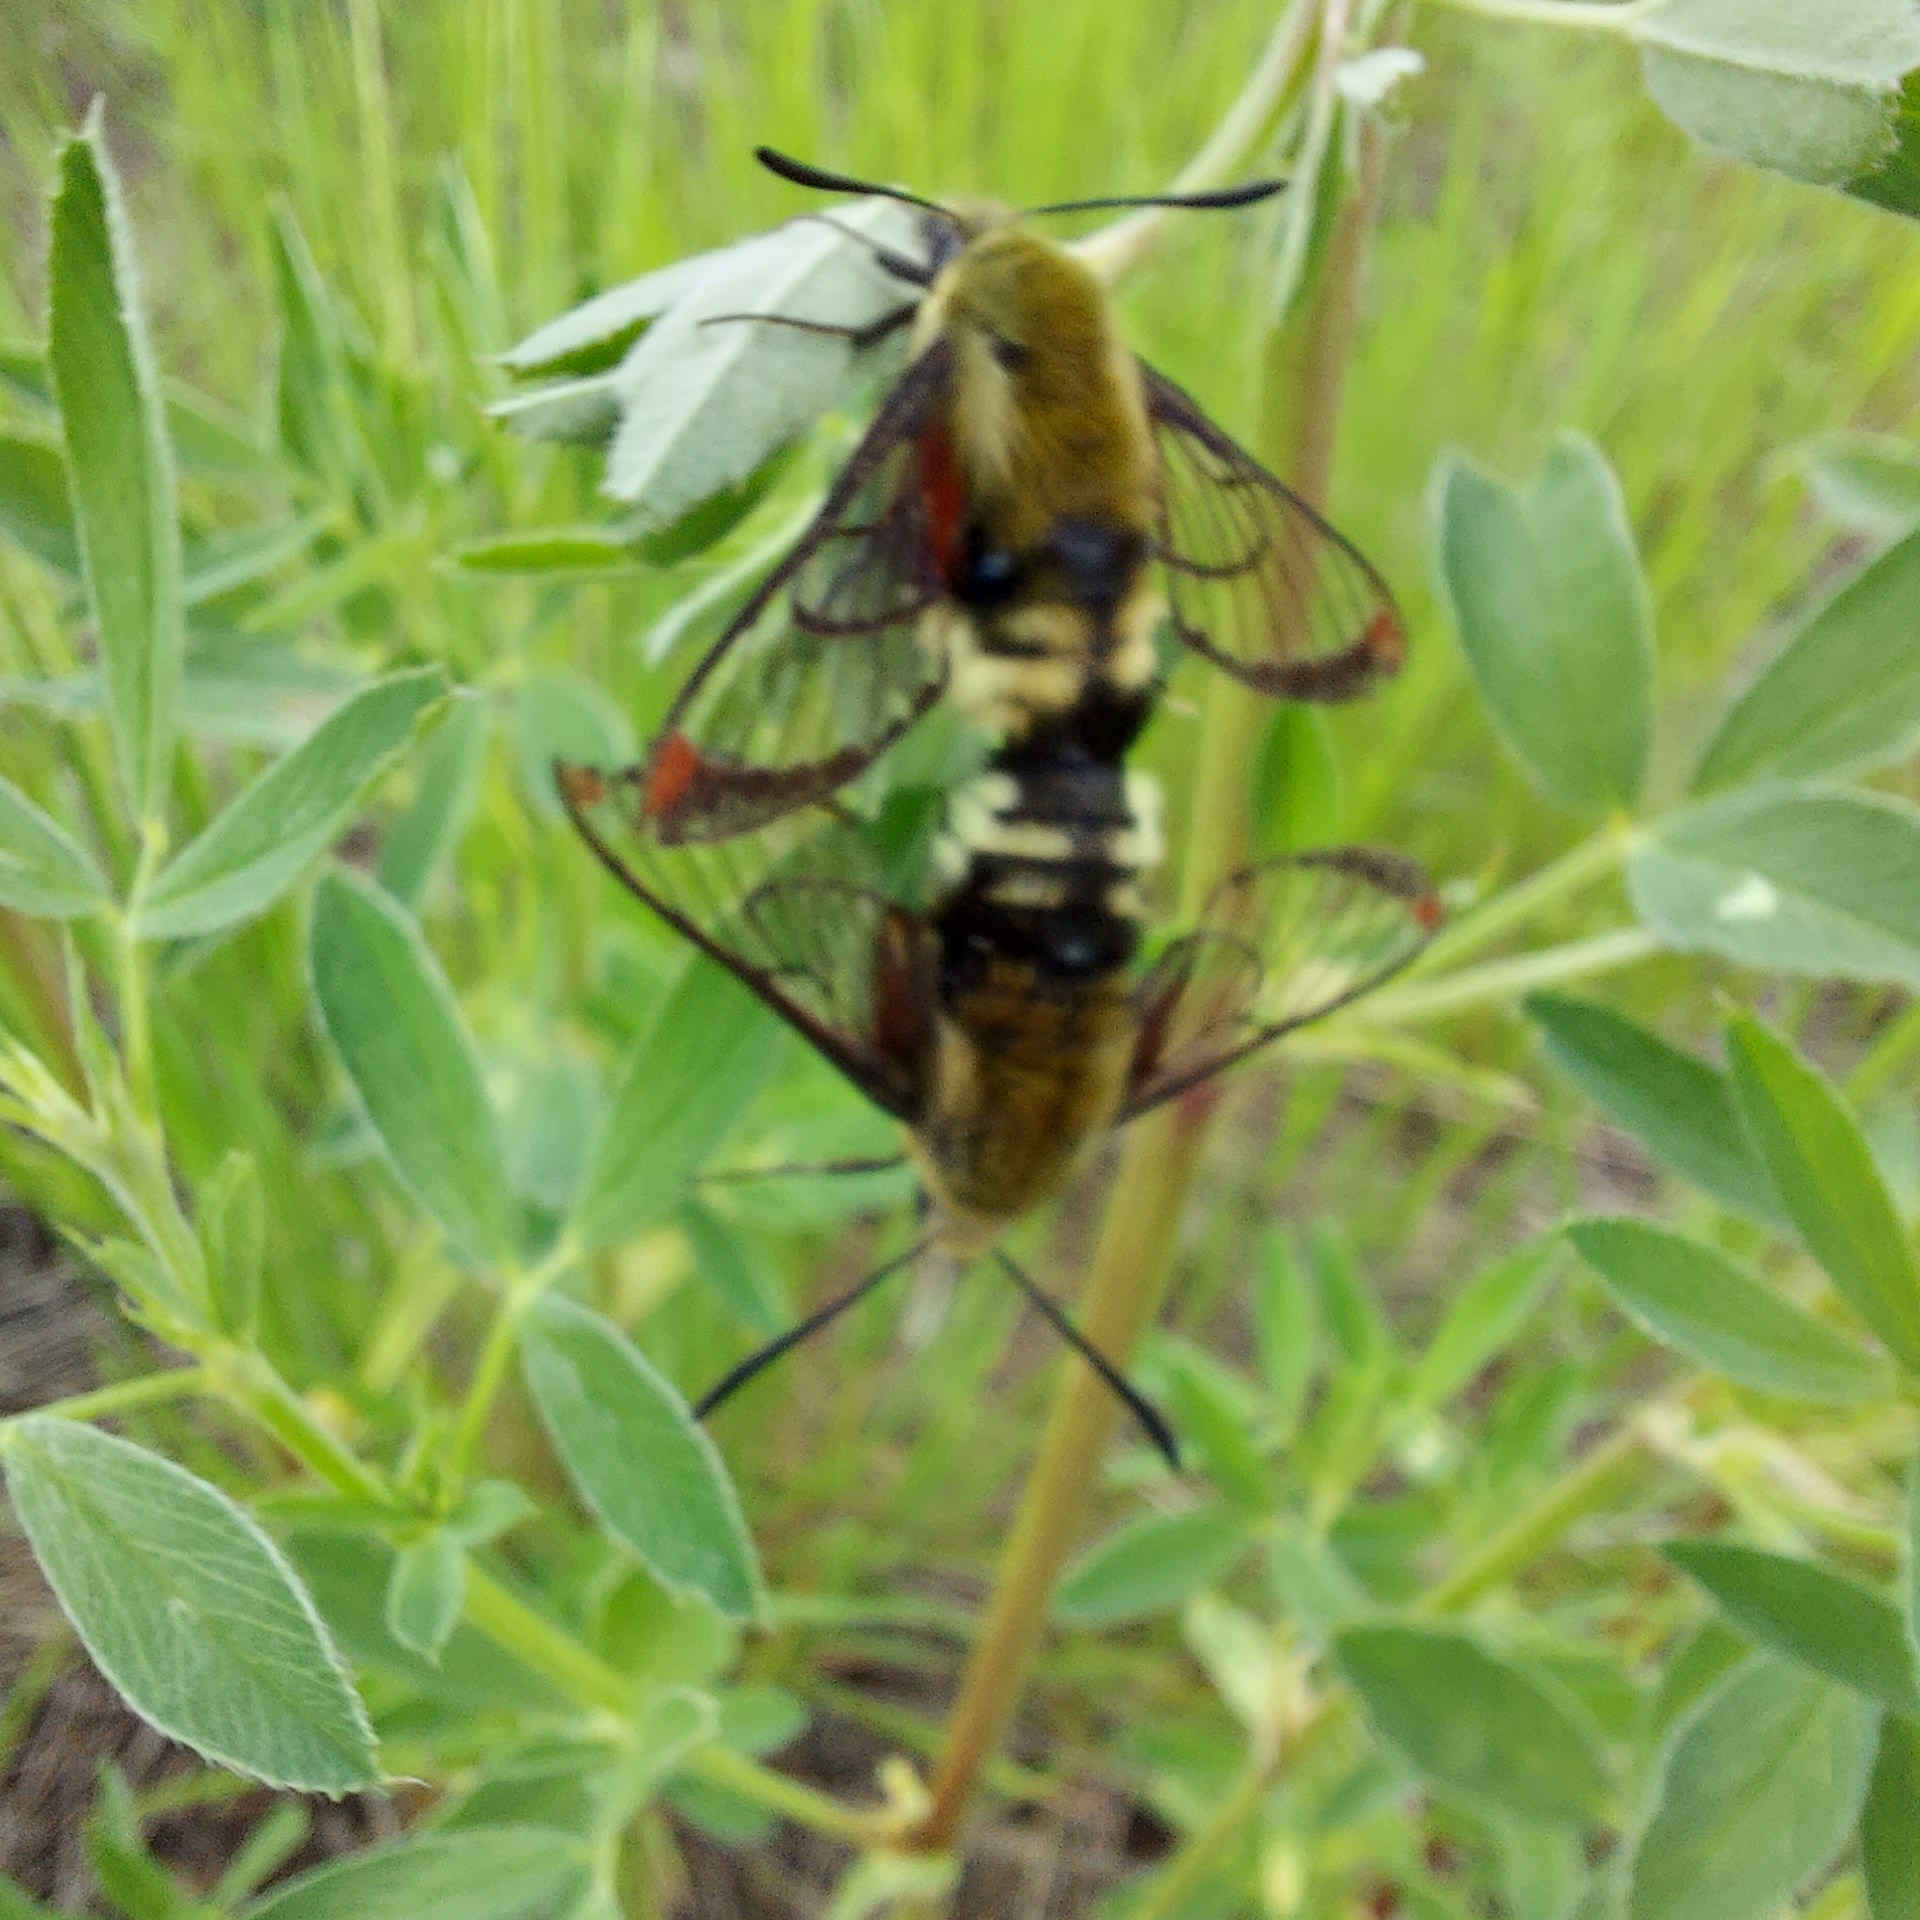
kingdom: Animalia
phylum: Arthropoda
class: Insecta
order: Lepidoptera
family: Sphingidae
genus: Hemaris
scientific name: Hemaris thetis
